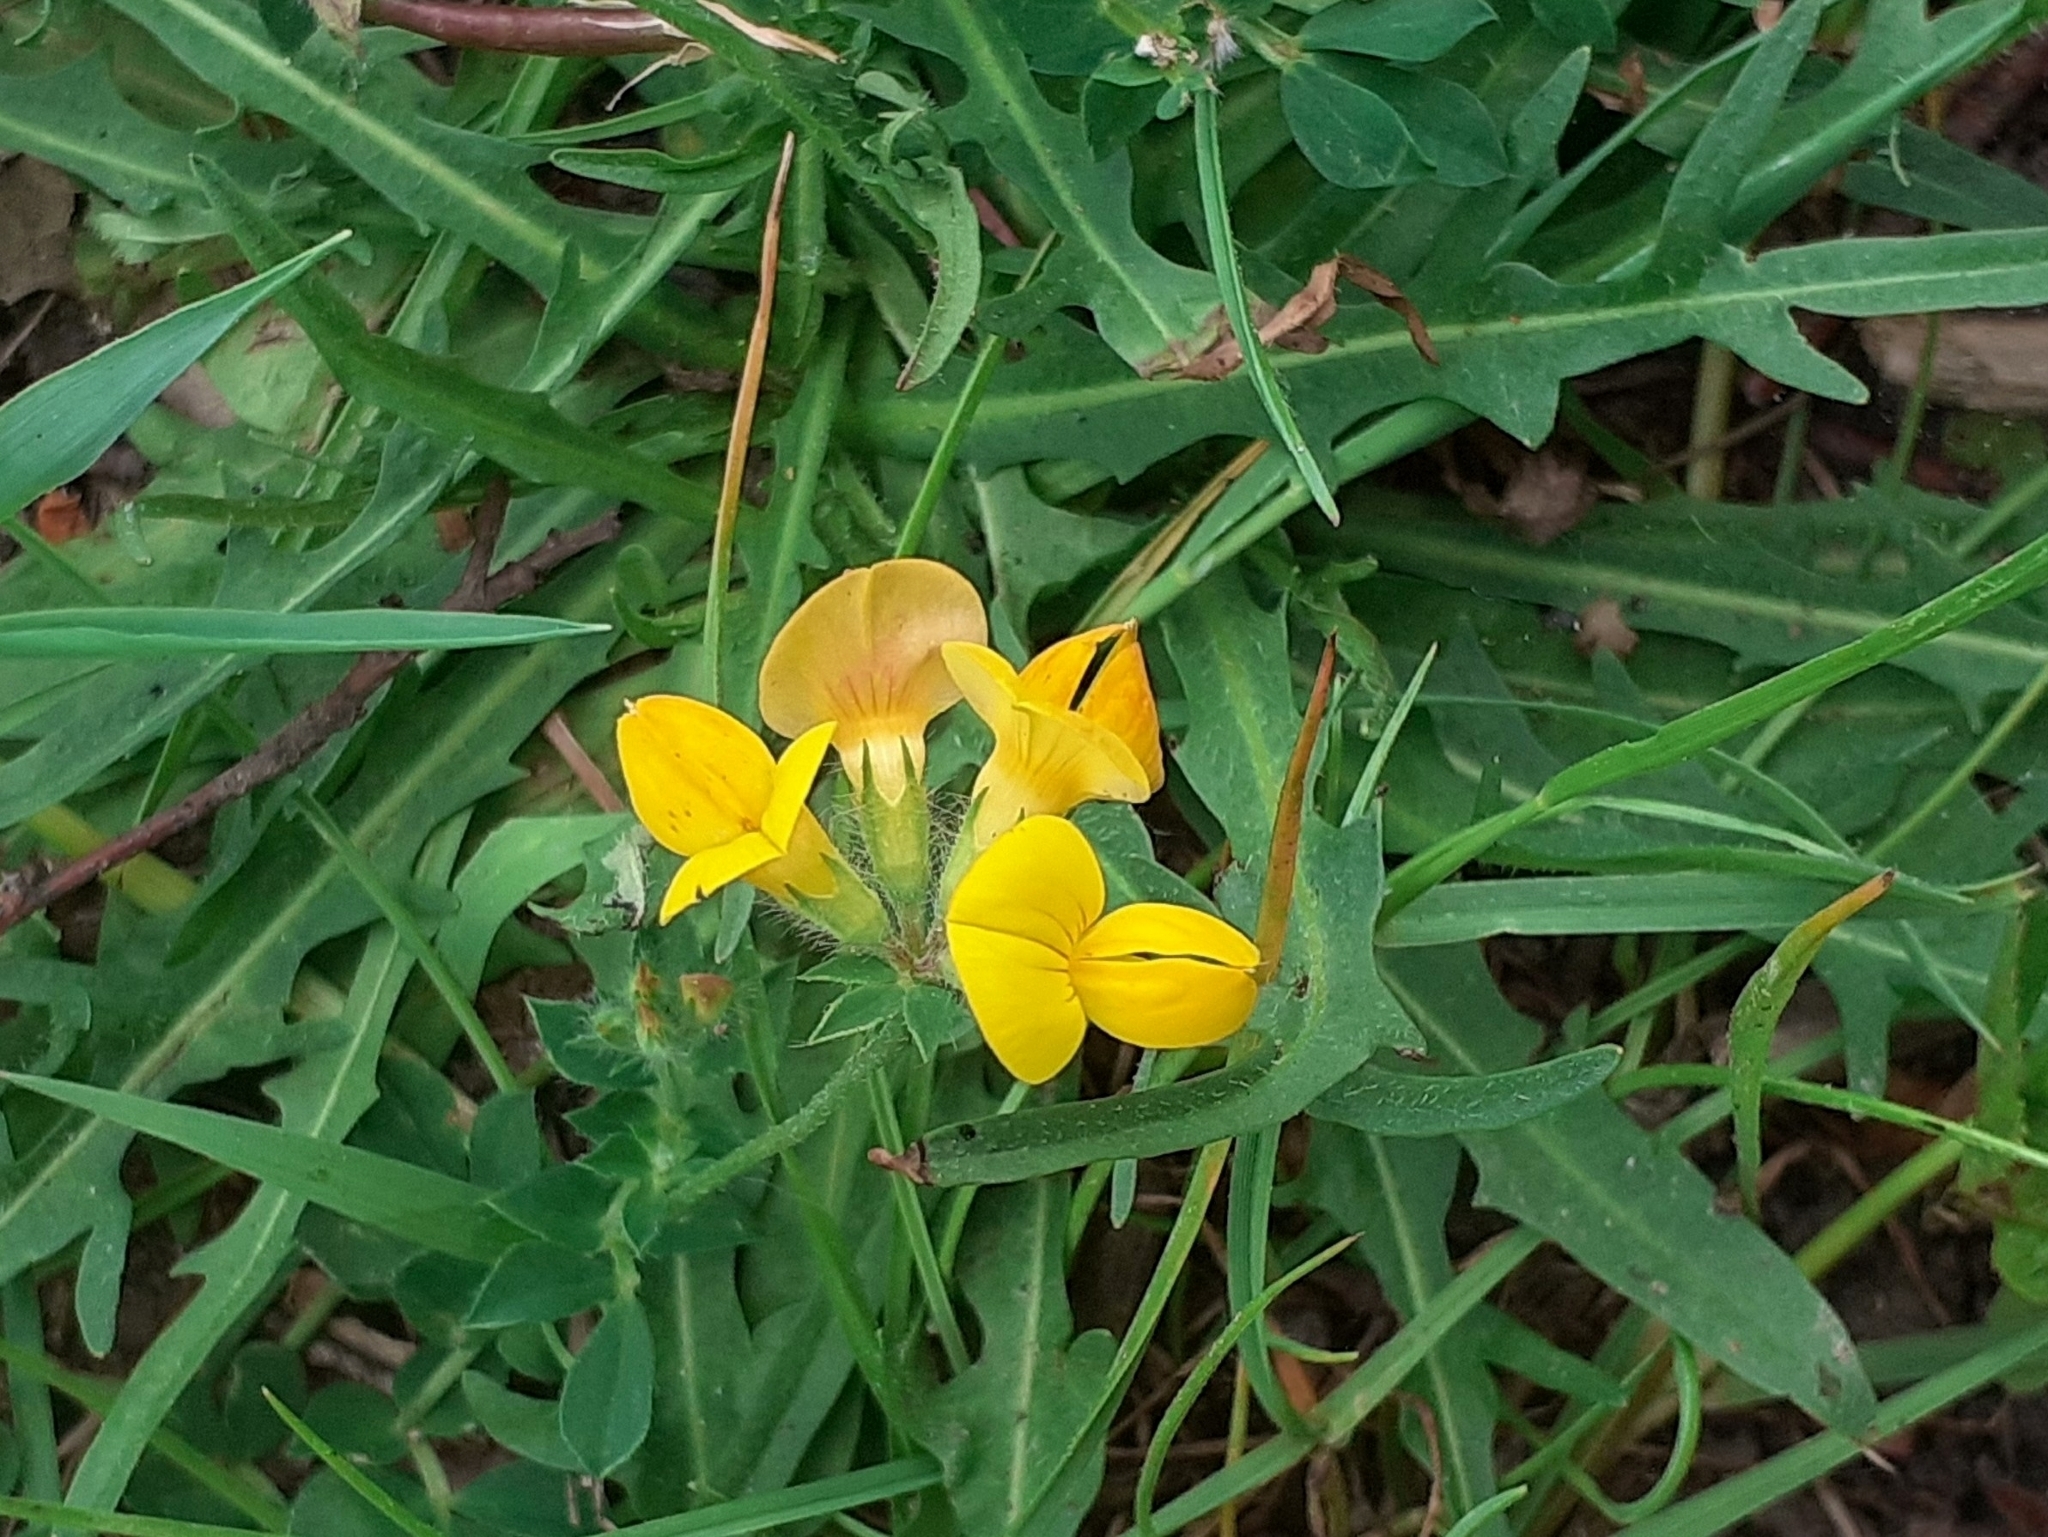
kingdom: Plantae
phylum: Tracheophyta
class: Magnoliopsida
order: Fabales
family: Fabaceae
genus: Lotus
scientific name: Lotus corniculatus
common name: Common bird's-foot-trefoil
